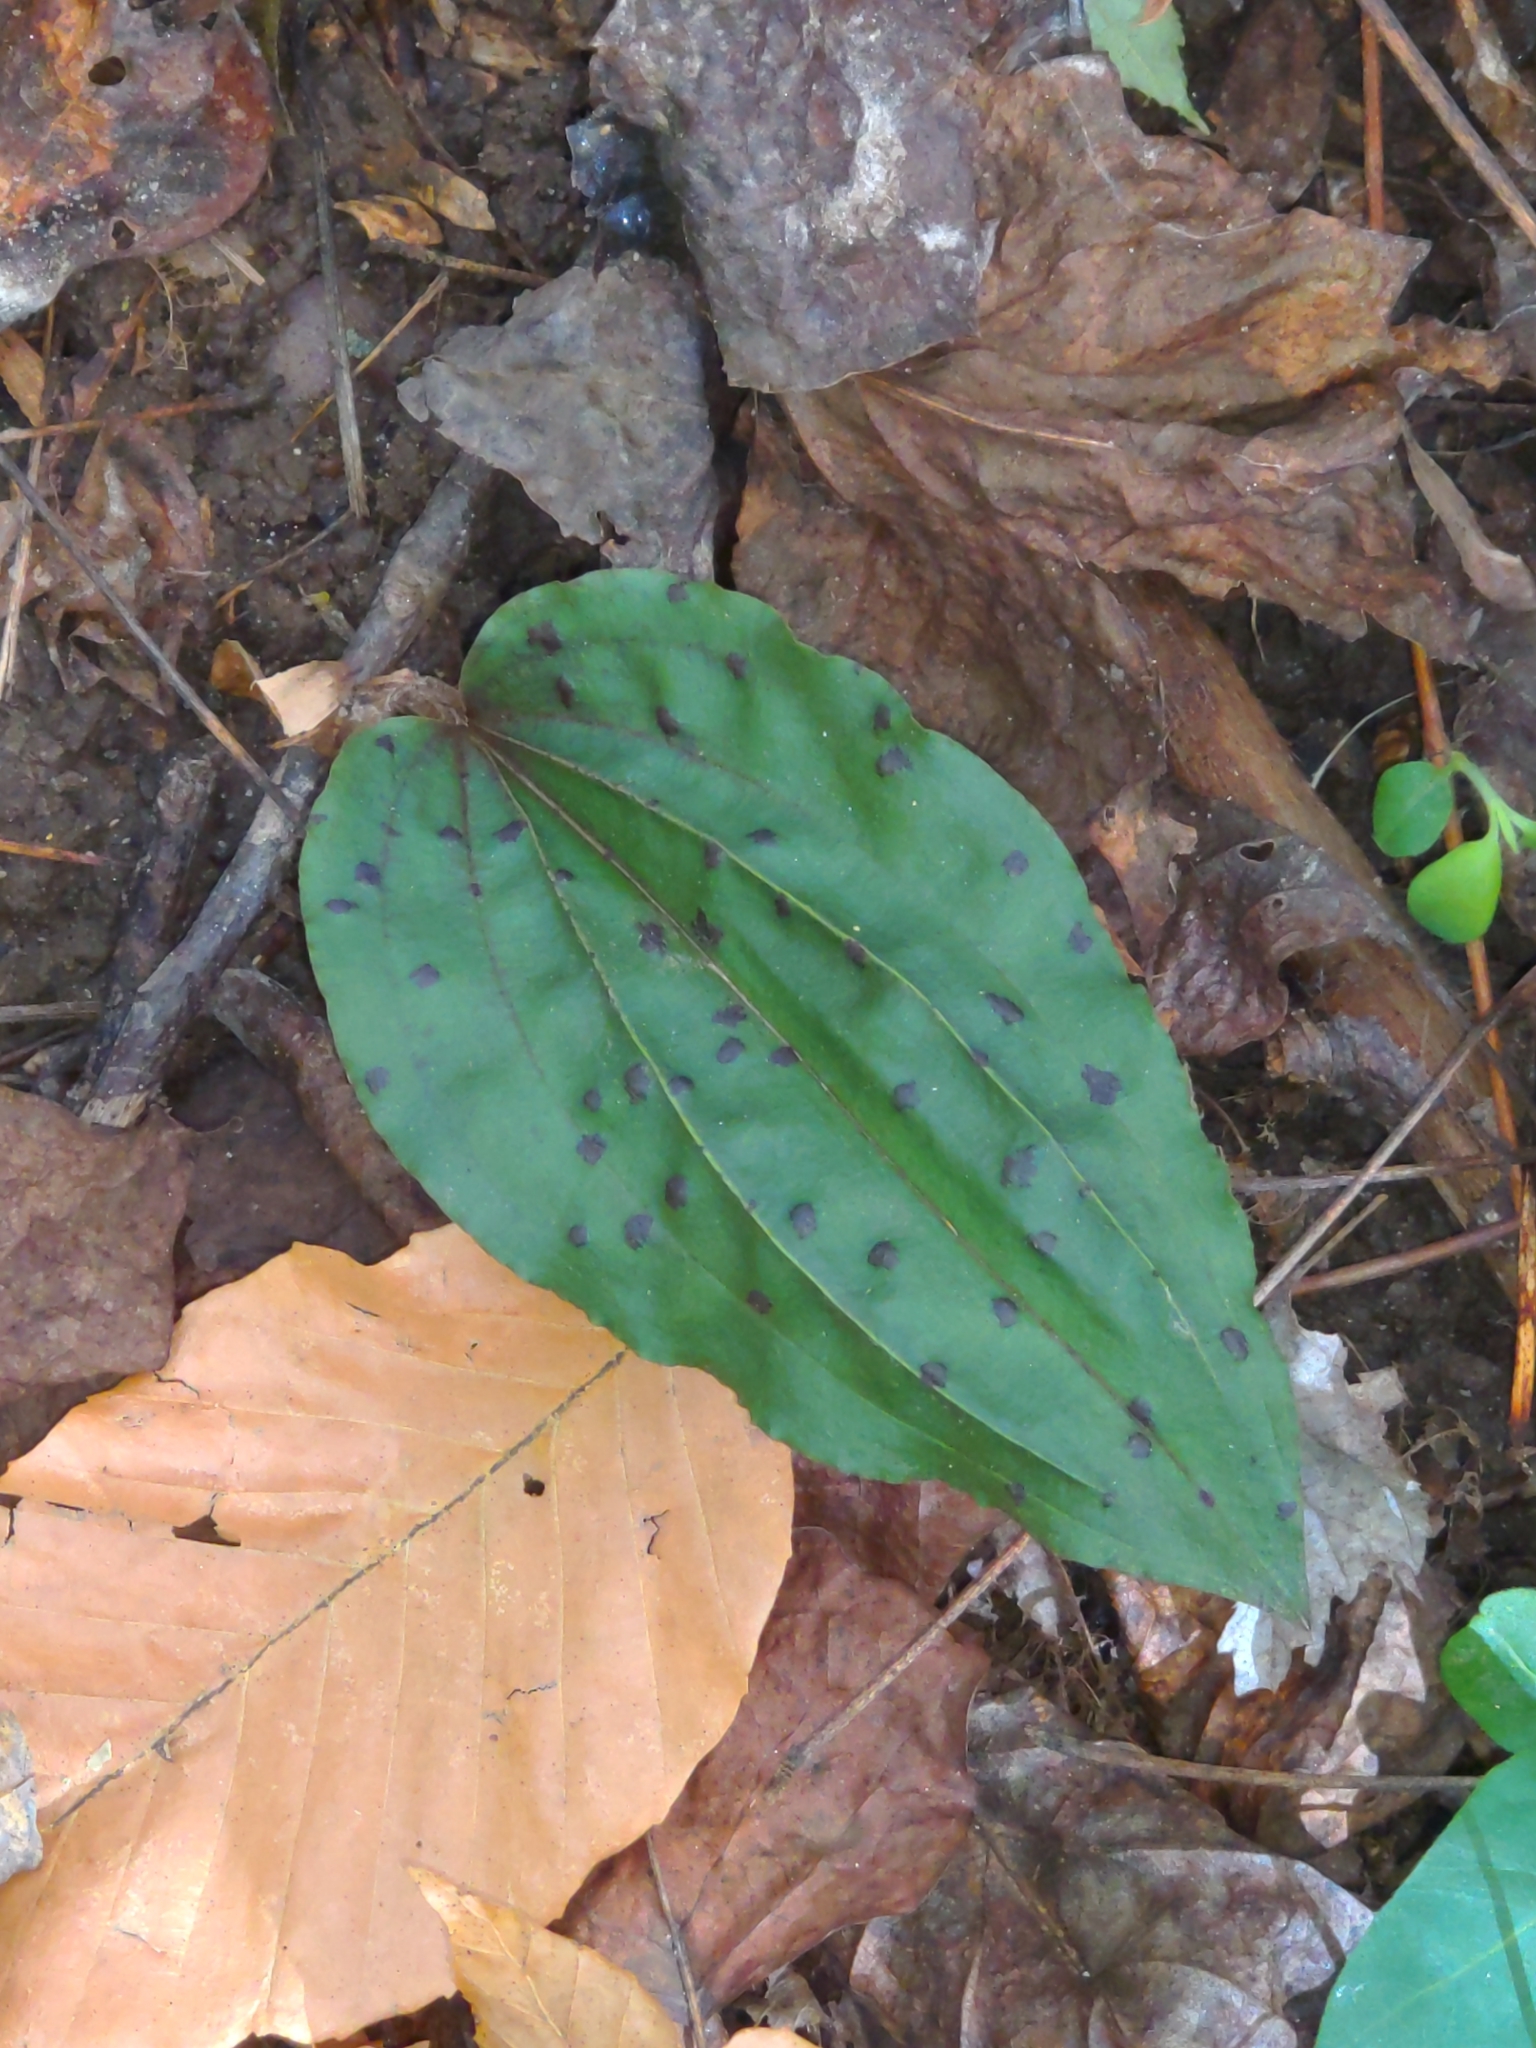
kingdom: Plantae
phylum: Tracheophyta
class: Liliopsida
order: Asparagales
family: Orchidaceae
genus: Tipularia
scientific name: Tipularia discolor
